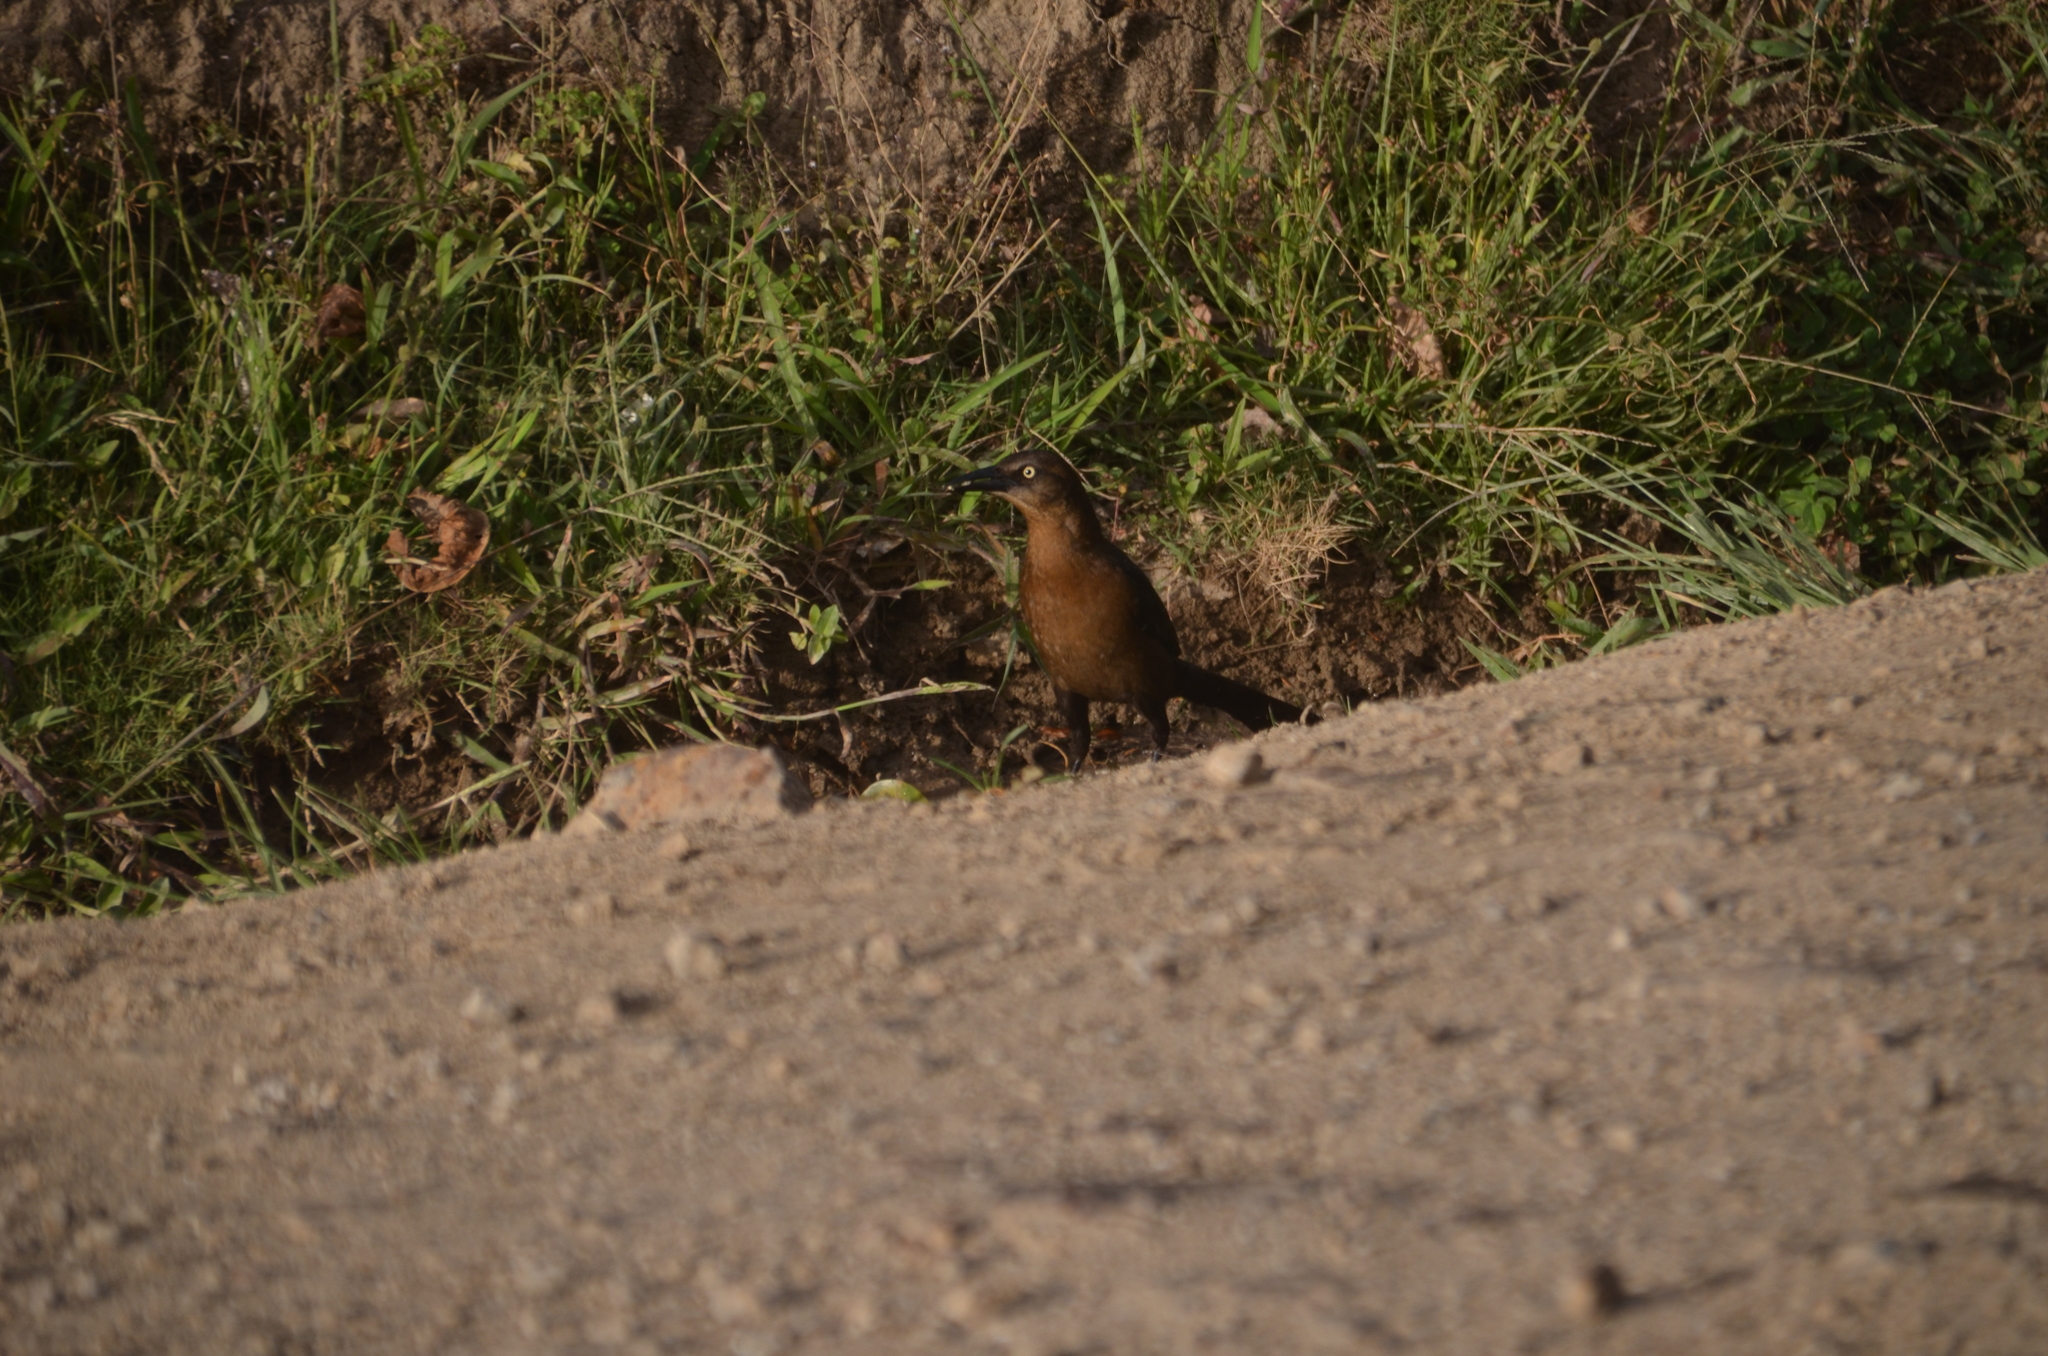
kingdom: Animalia
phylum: Chordata
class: Aves
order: Passeriformes
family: Icteridae
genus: Quiscalus
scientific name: Quiscalus mexicanus
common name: Great-tailed grackle
